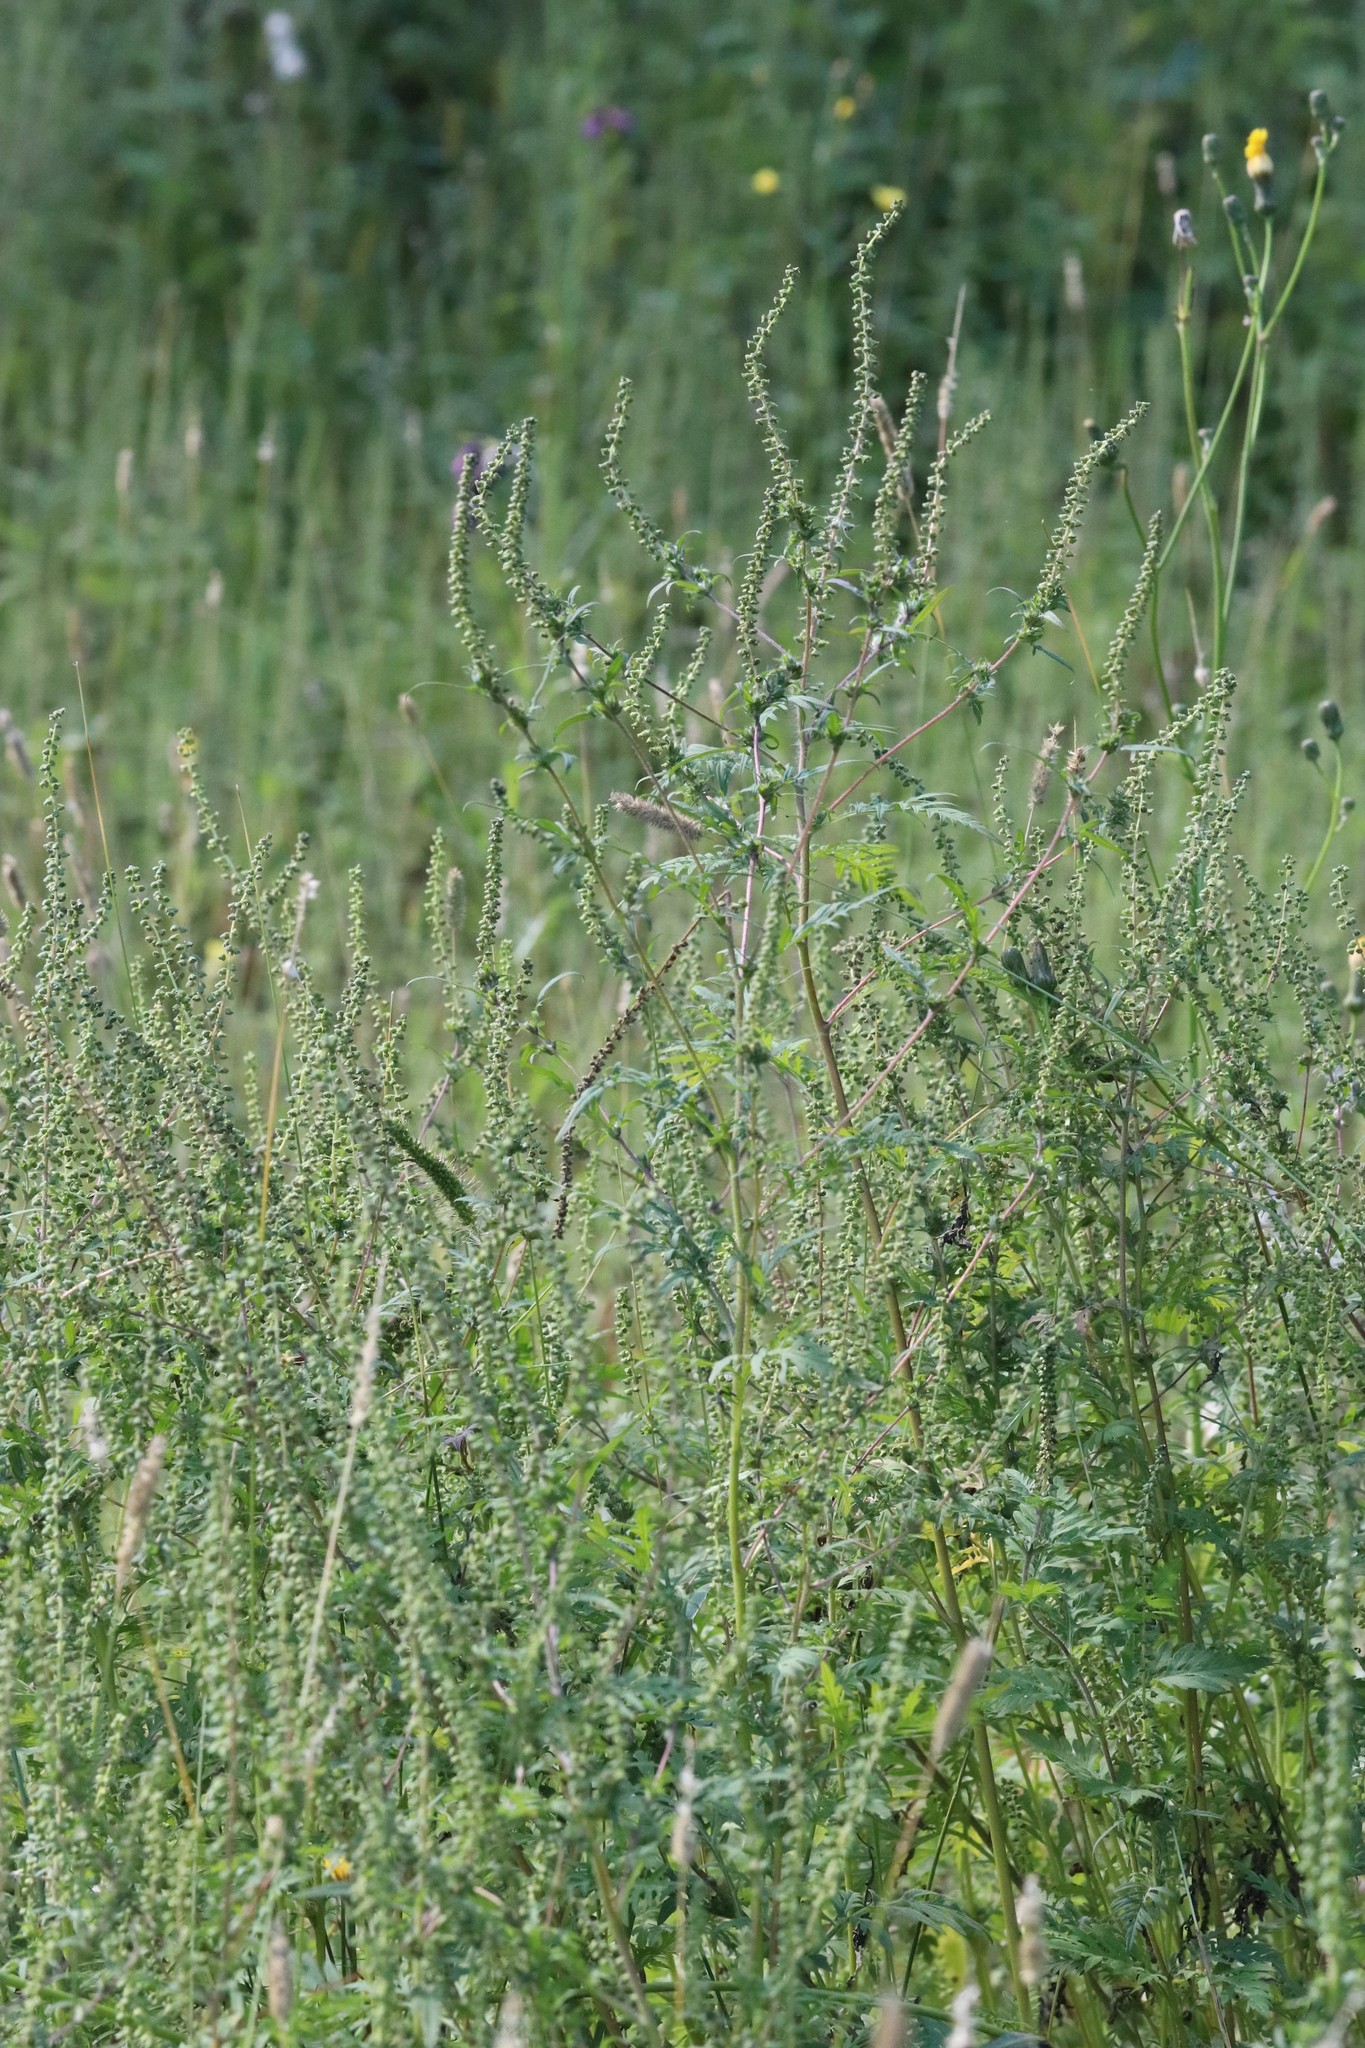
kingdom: Plantae
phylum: Tracheophyta
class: Magnoliopsida
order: Asterales
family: Asteraceae
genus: Ambrosia
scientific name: Ambrosia artemisiifolia
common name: Annual ragweed
